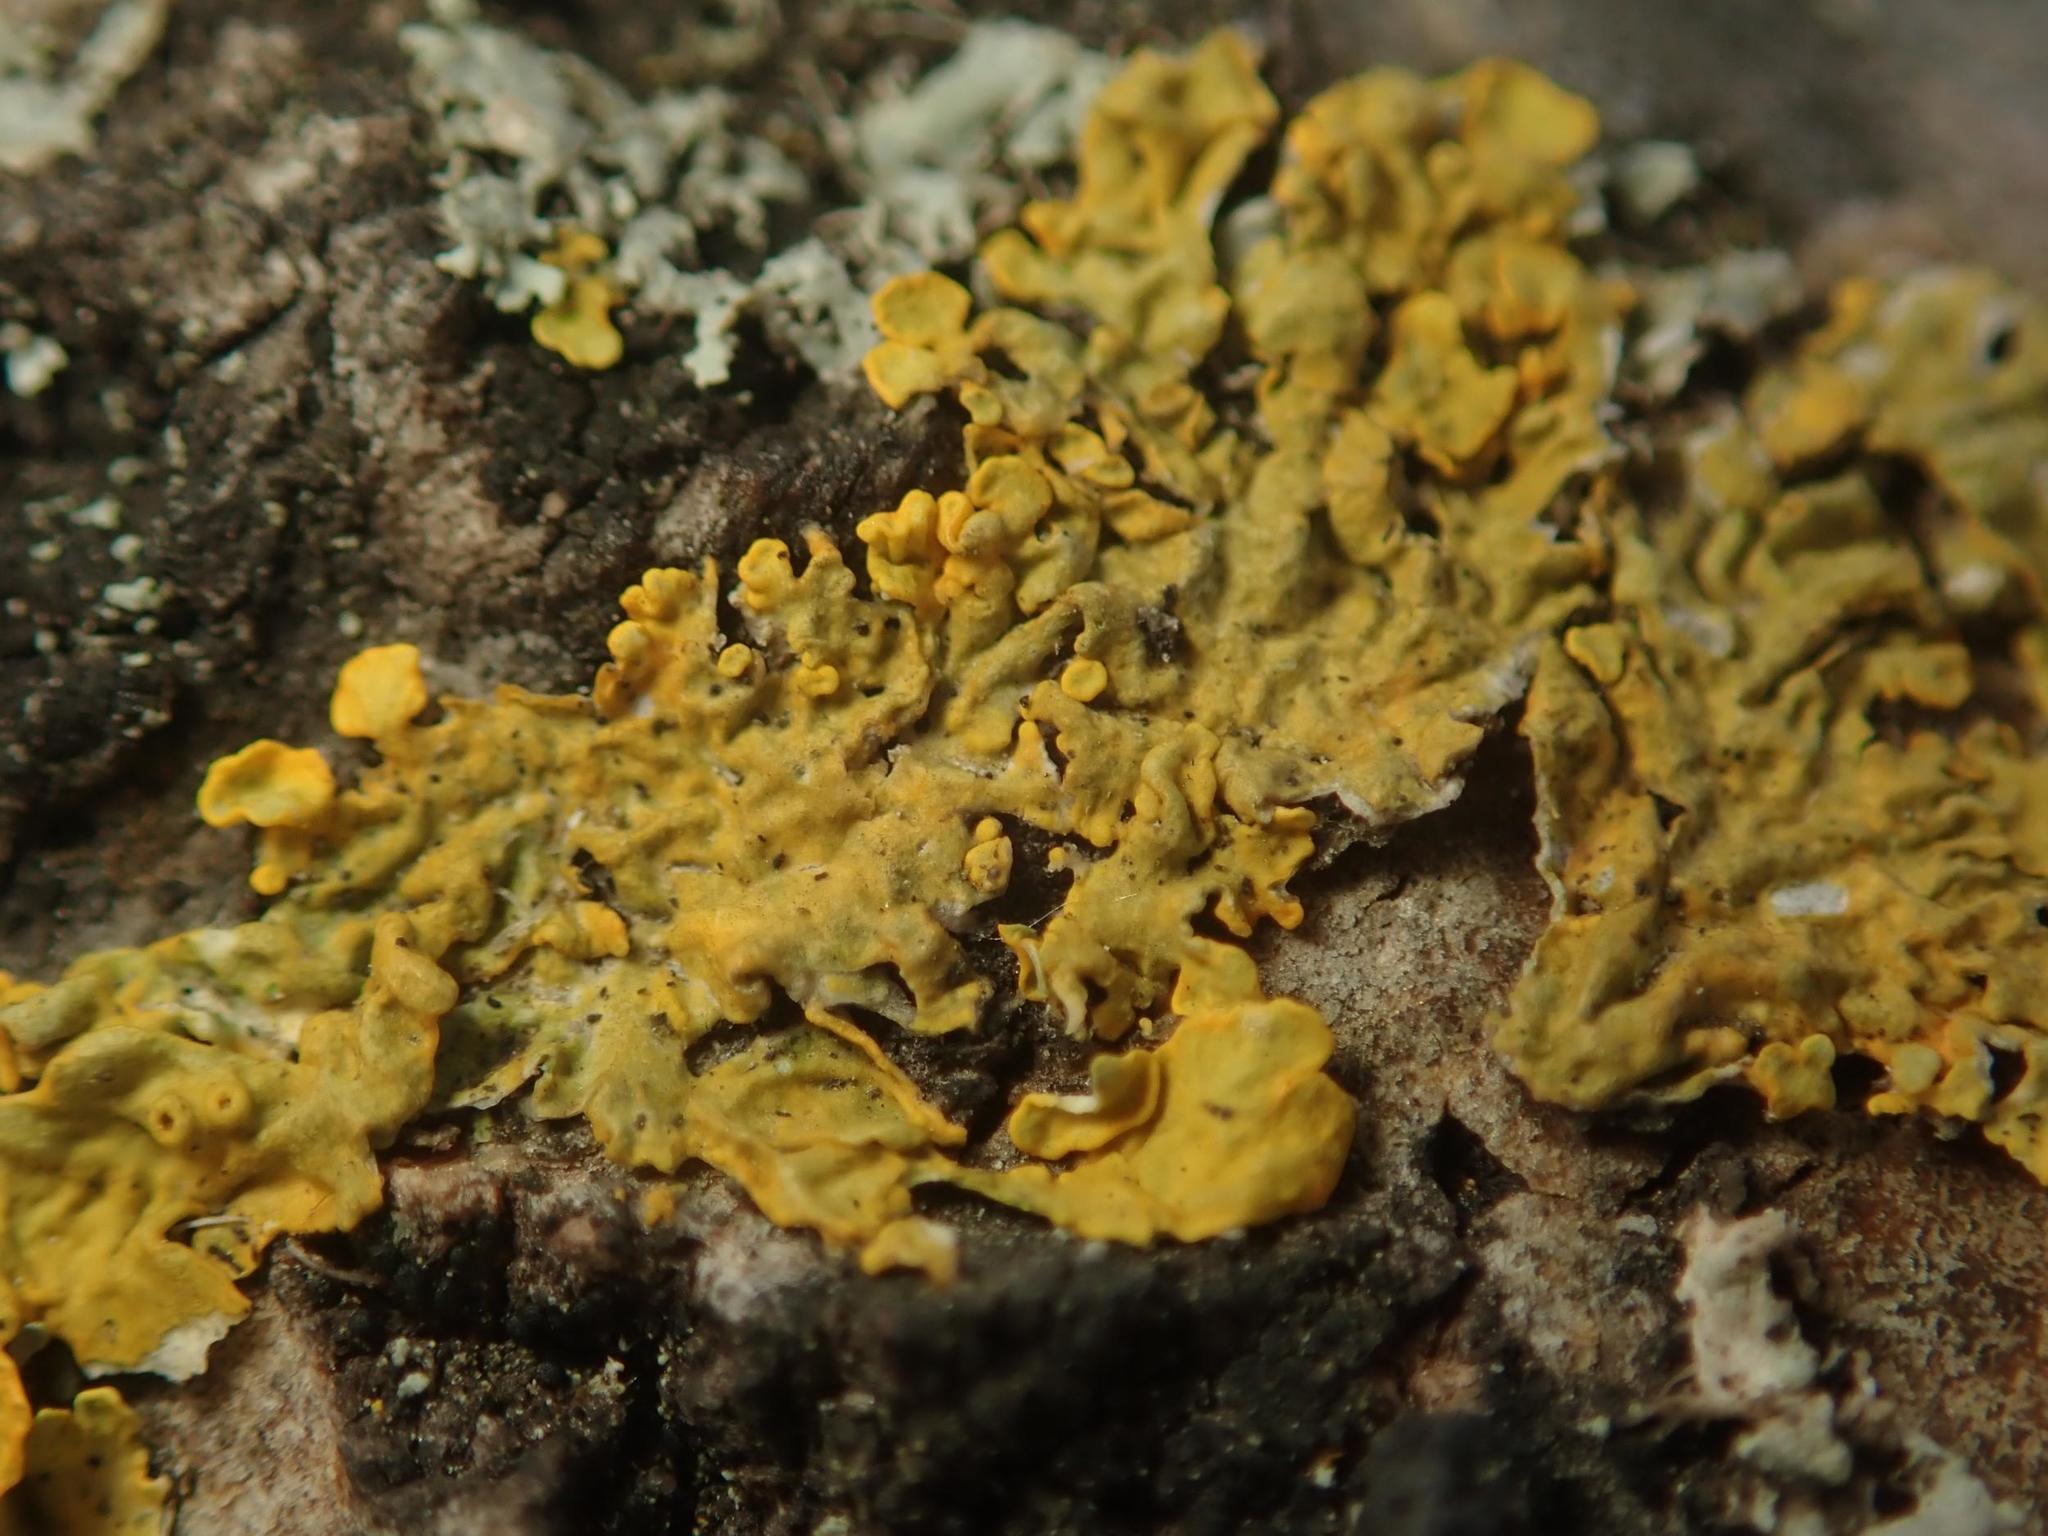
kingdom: Fungi
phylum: Ascomycota
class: Lecanoromycetes
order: Teloschistales
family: Teloschistaceae
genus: Xanthoria
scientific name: Xanthoria parietina
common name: Common orange lichen
